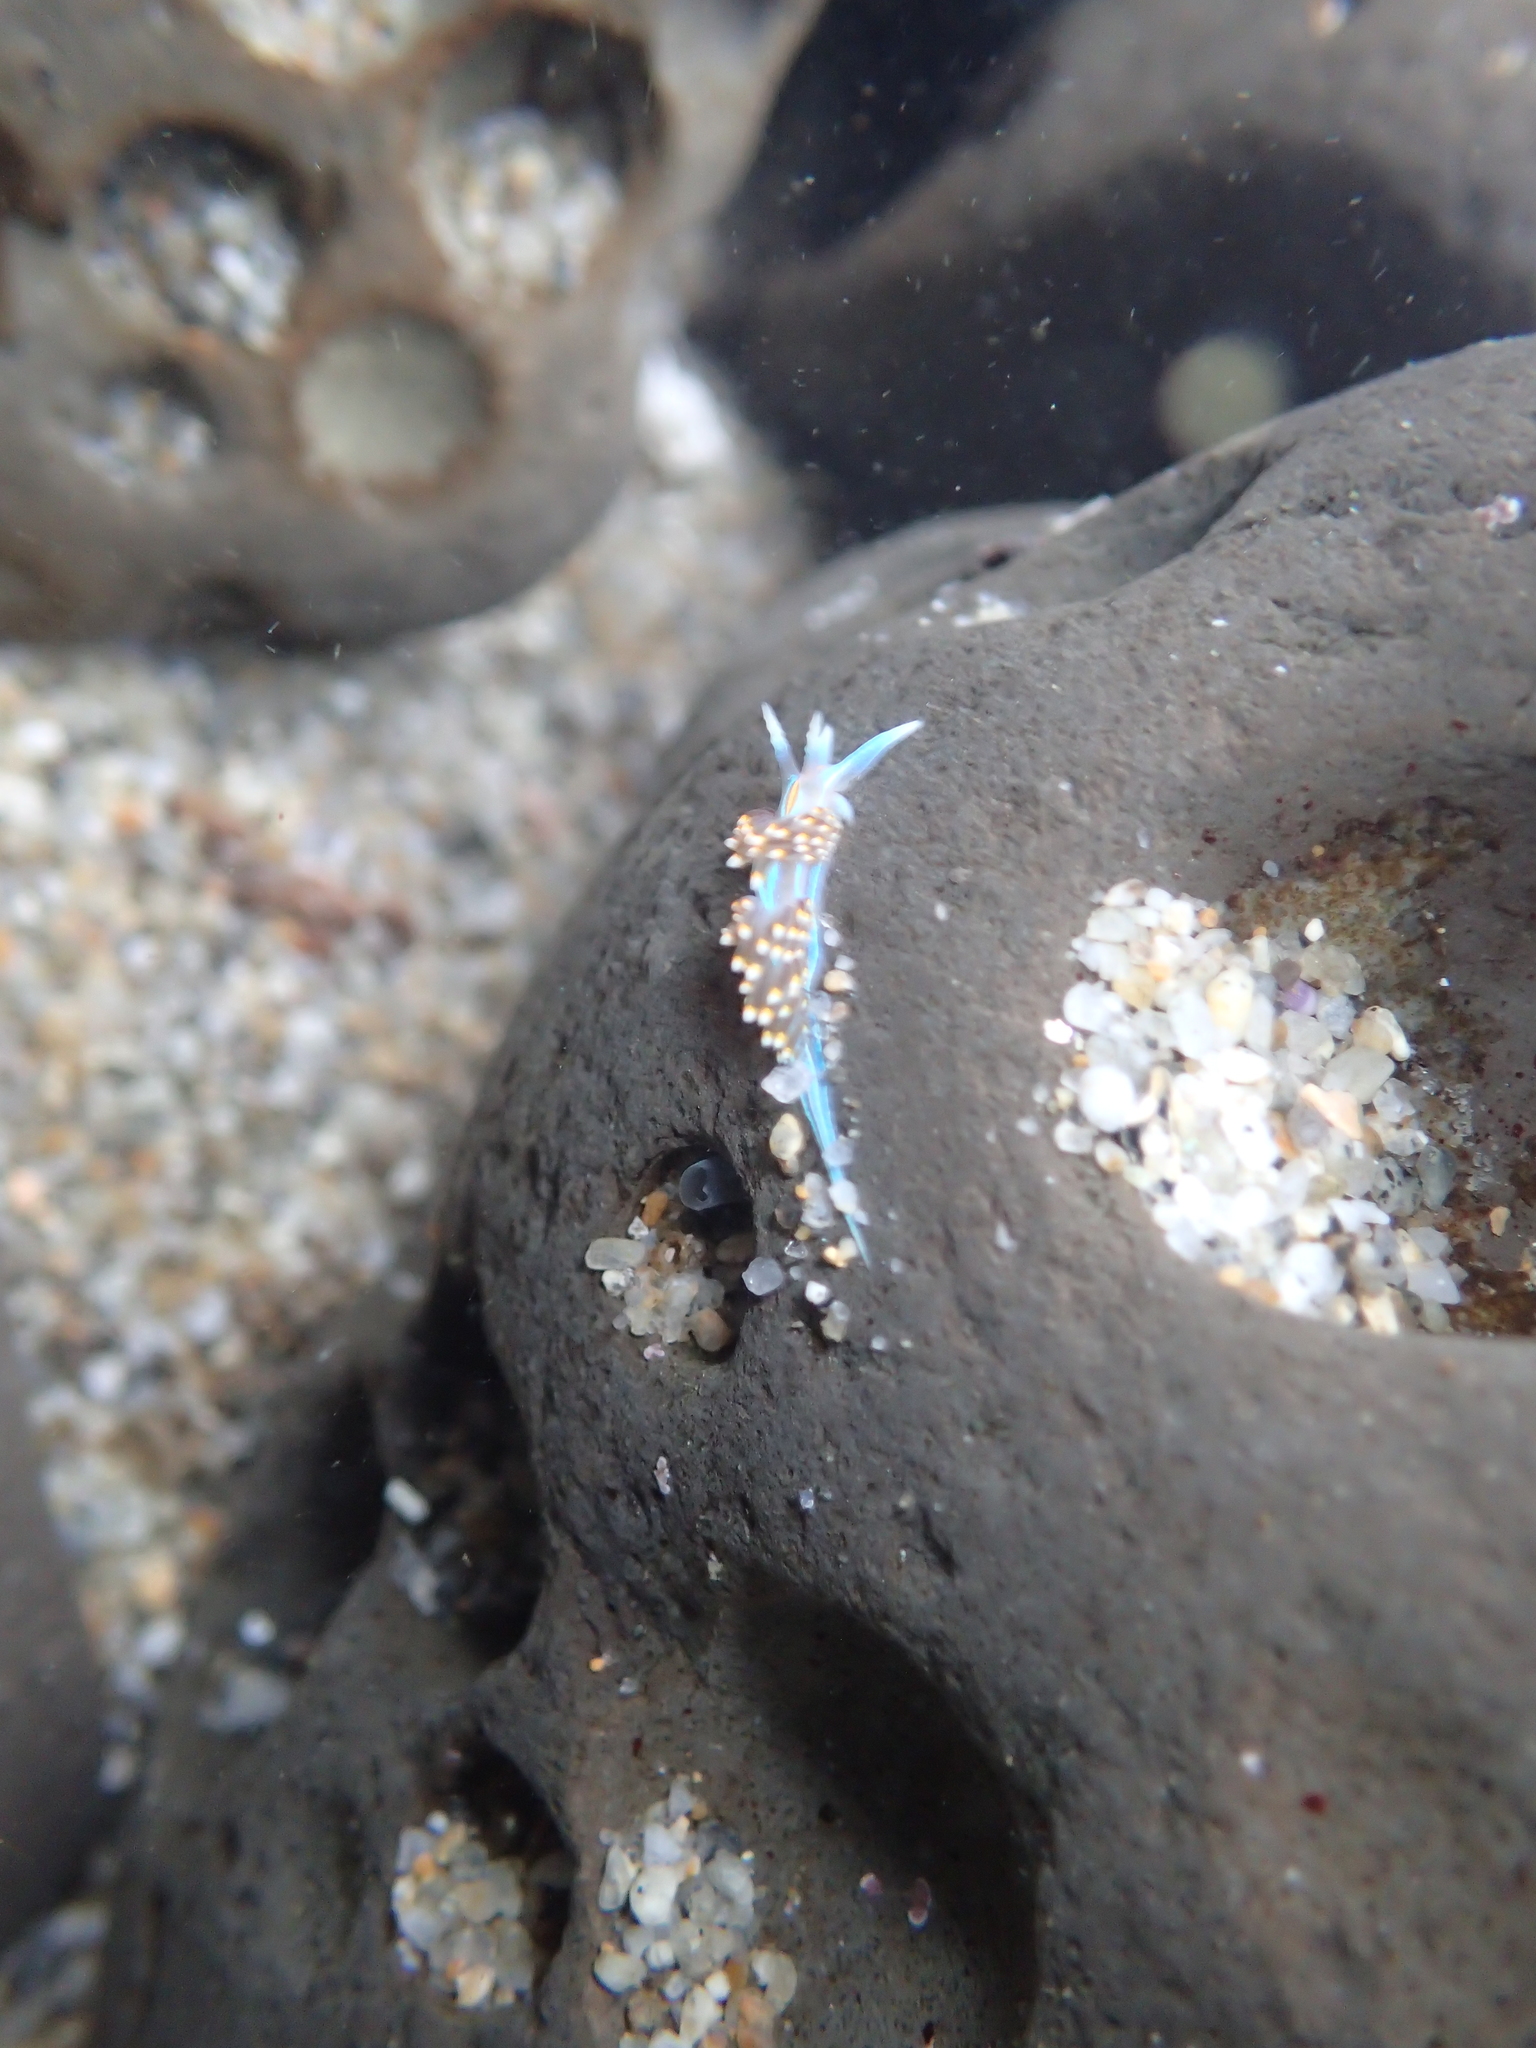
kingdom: Animalia
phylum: Mollusca
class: Gastropoda
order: Nudibranchia
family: Myrrhinidae
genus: Hermissenda
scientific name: Hermissenda opalescens
